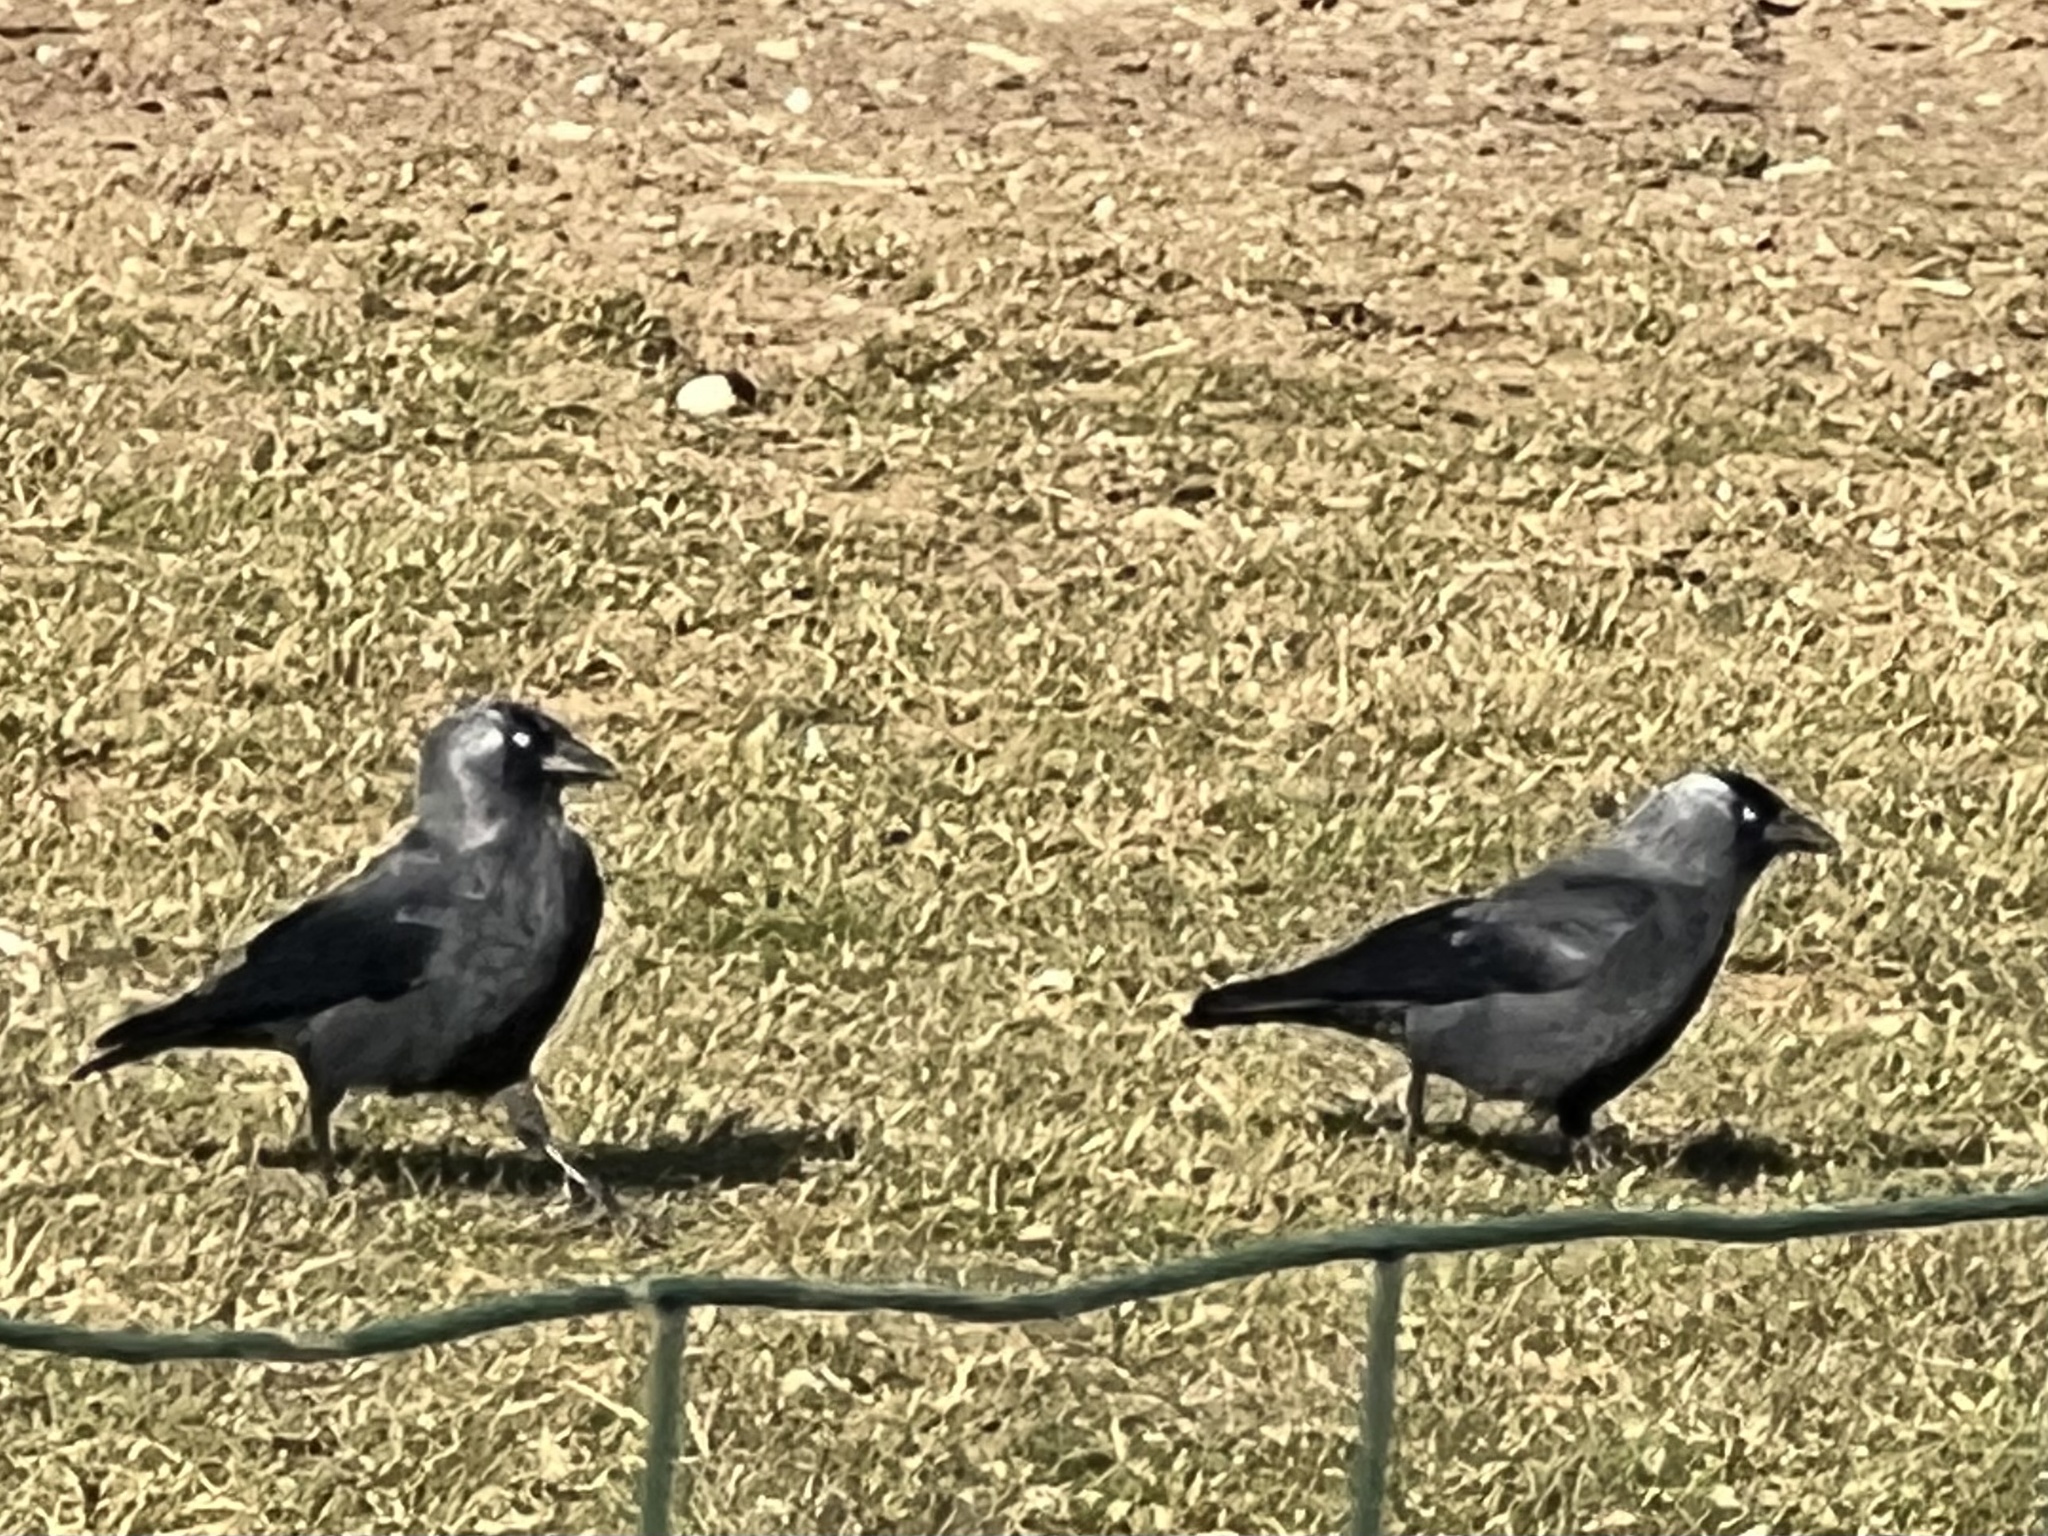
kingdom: Animalia
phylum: Chordata
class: Aves
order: Passeriformes
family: Corvidae
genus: Coloeus
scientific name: Coloeus monedula
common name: Western jackdaw
